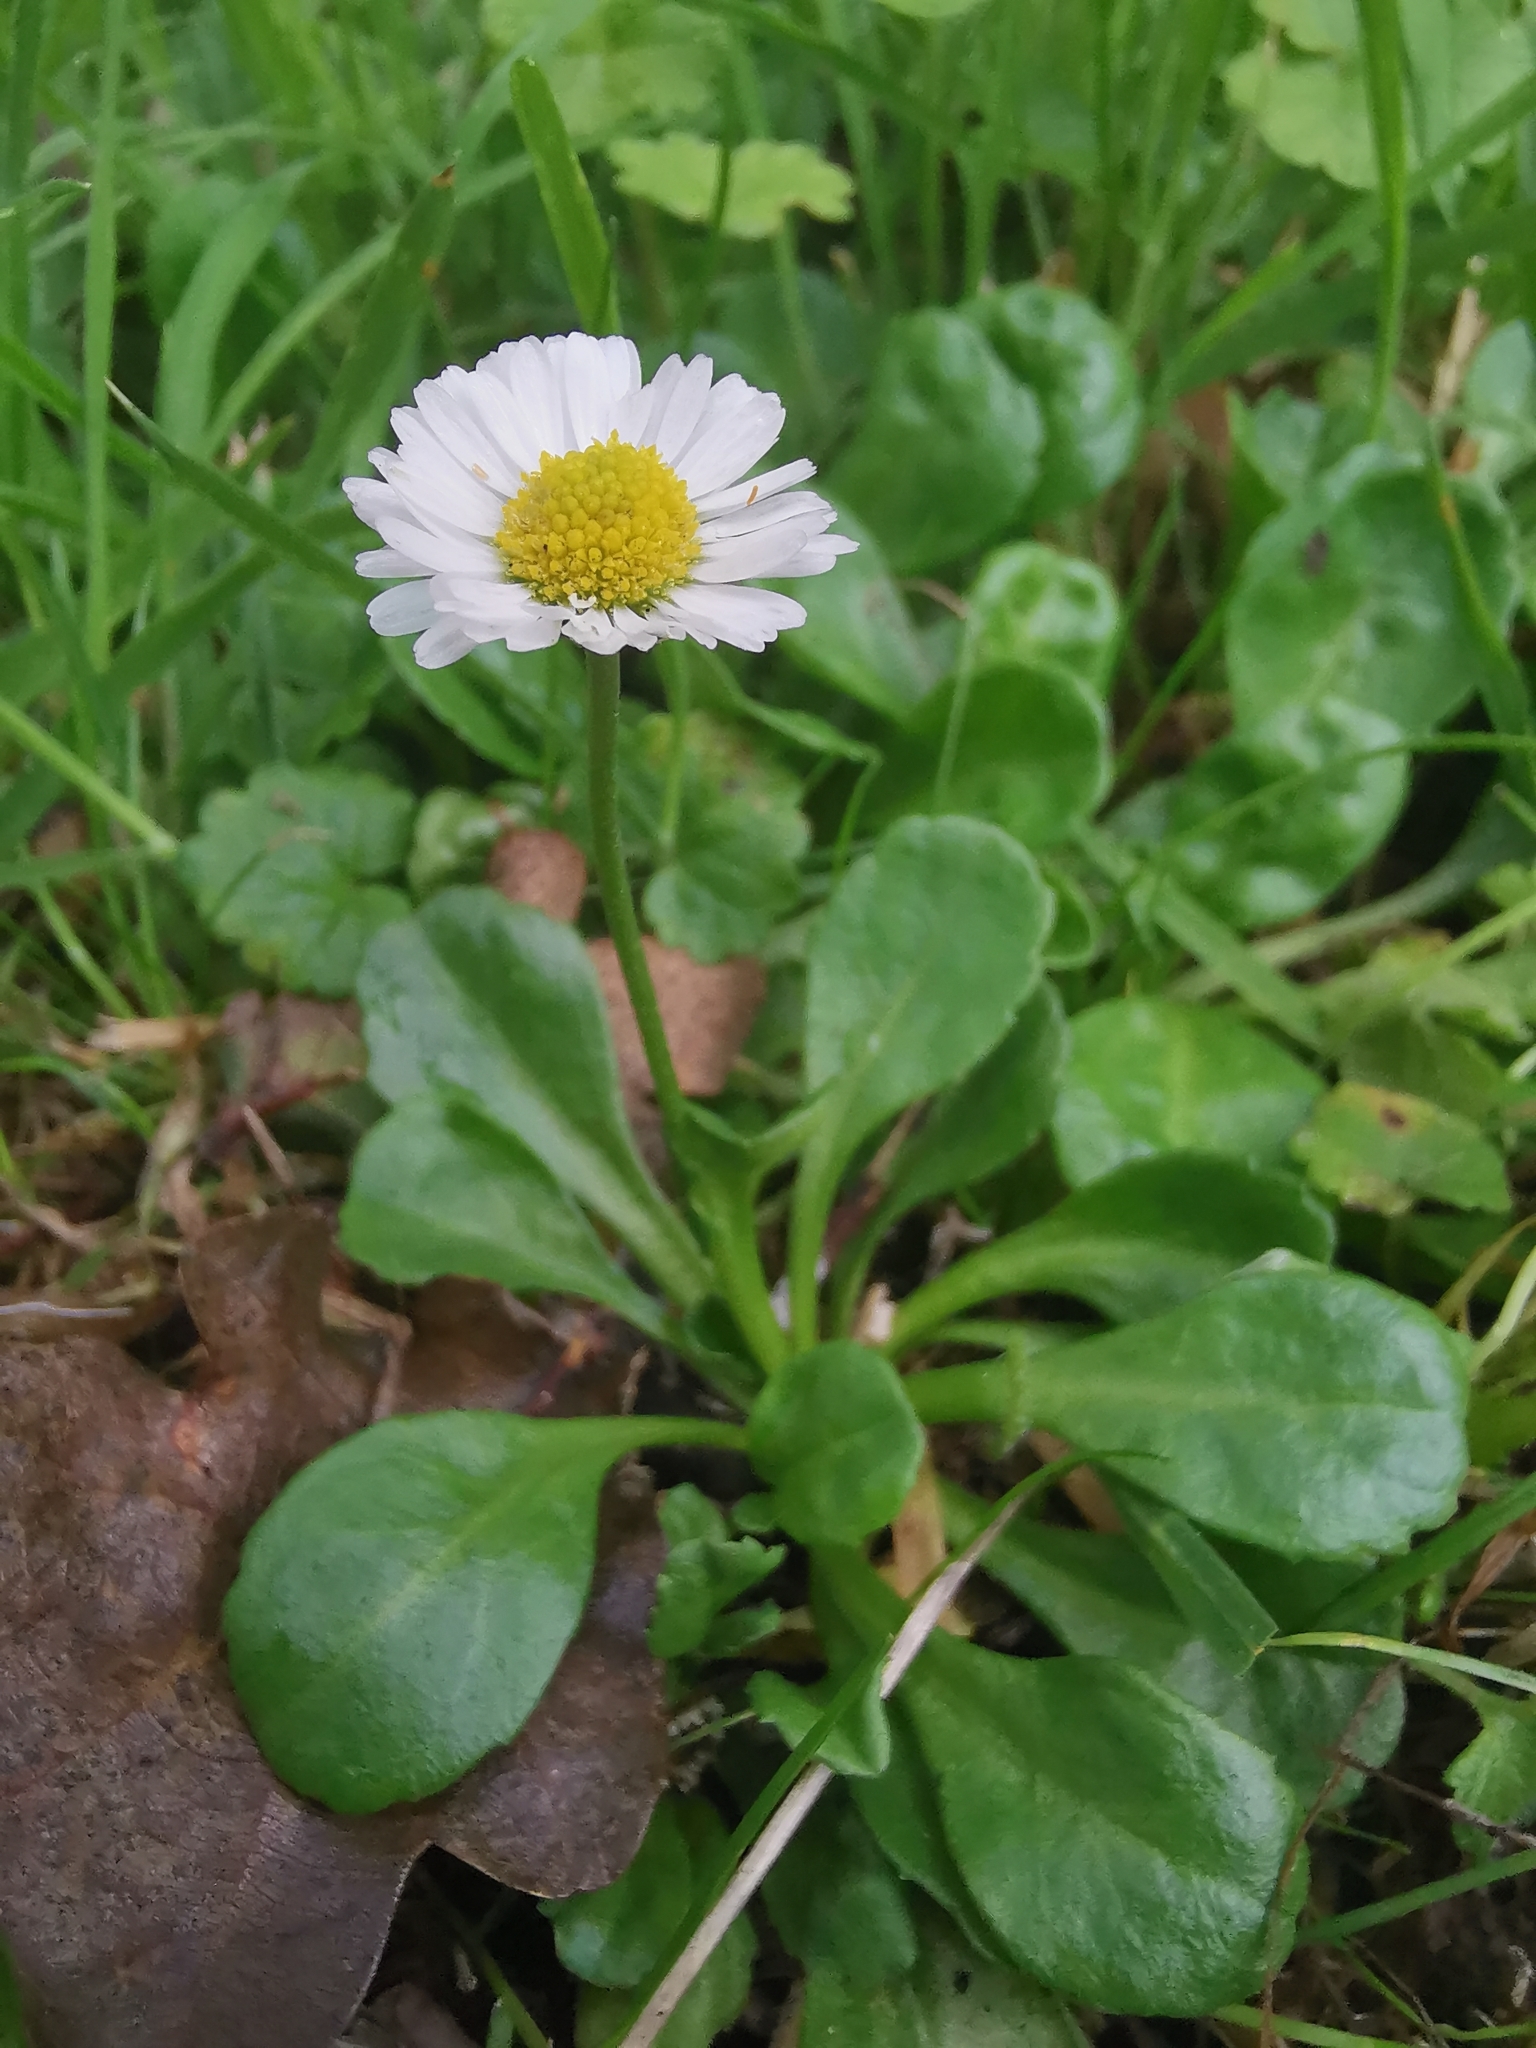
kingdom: Plantae
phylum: Tracheophyta
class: Magnoliopsida
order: Asterales
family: Asteraceae
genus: Bellis
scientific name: Bellis perennis
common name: Lawndaisy
